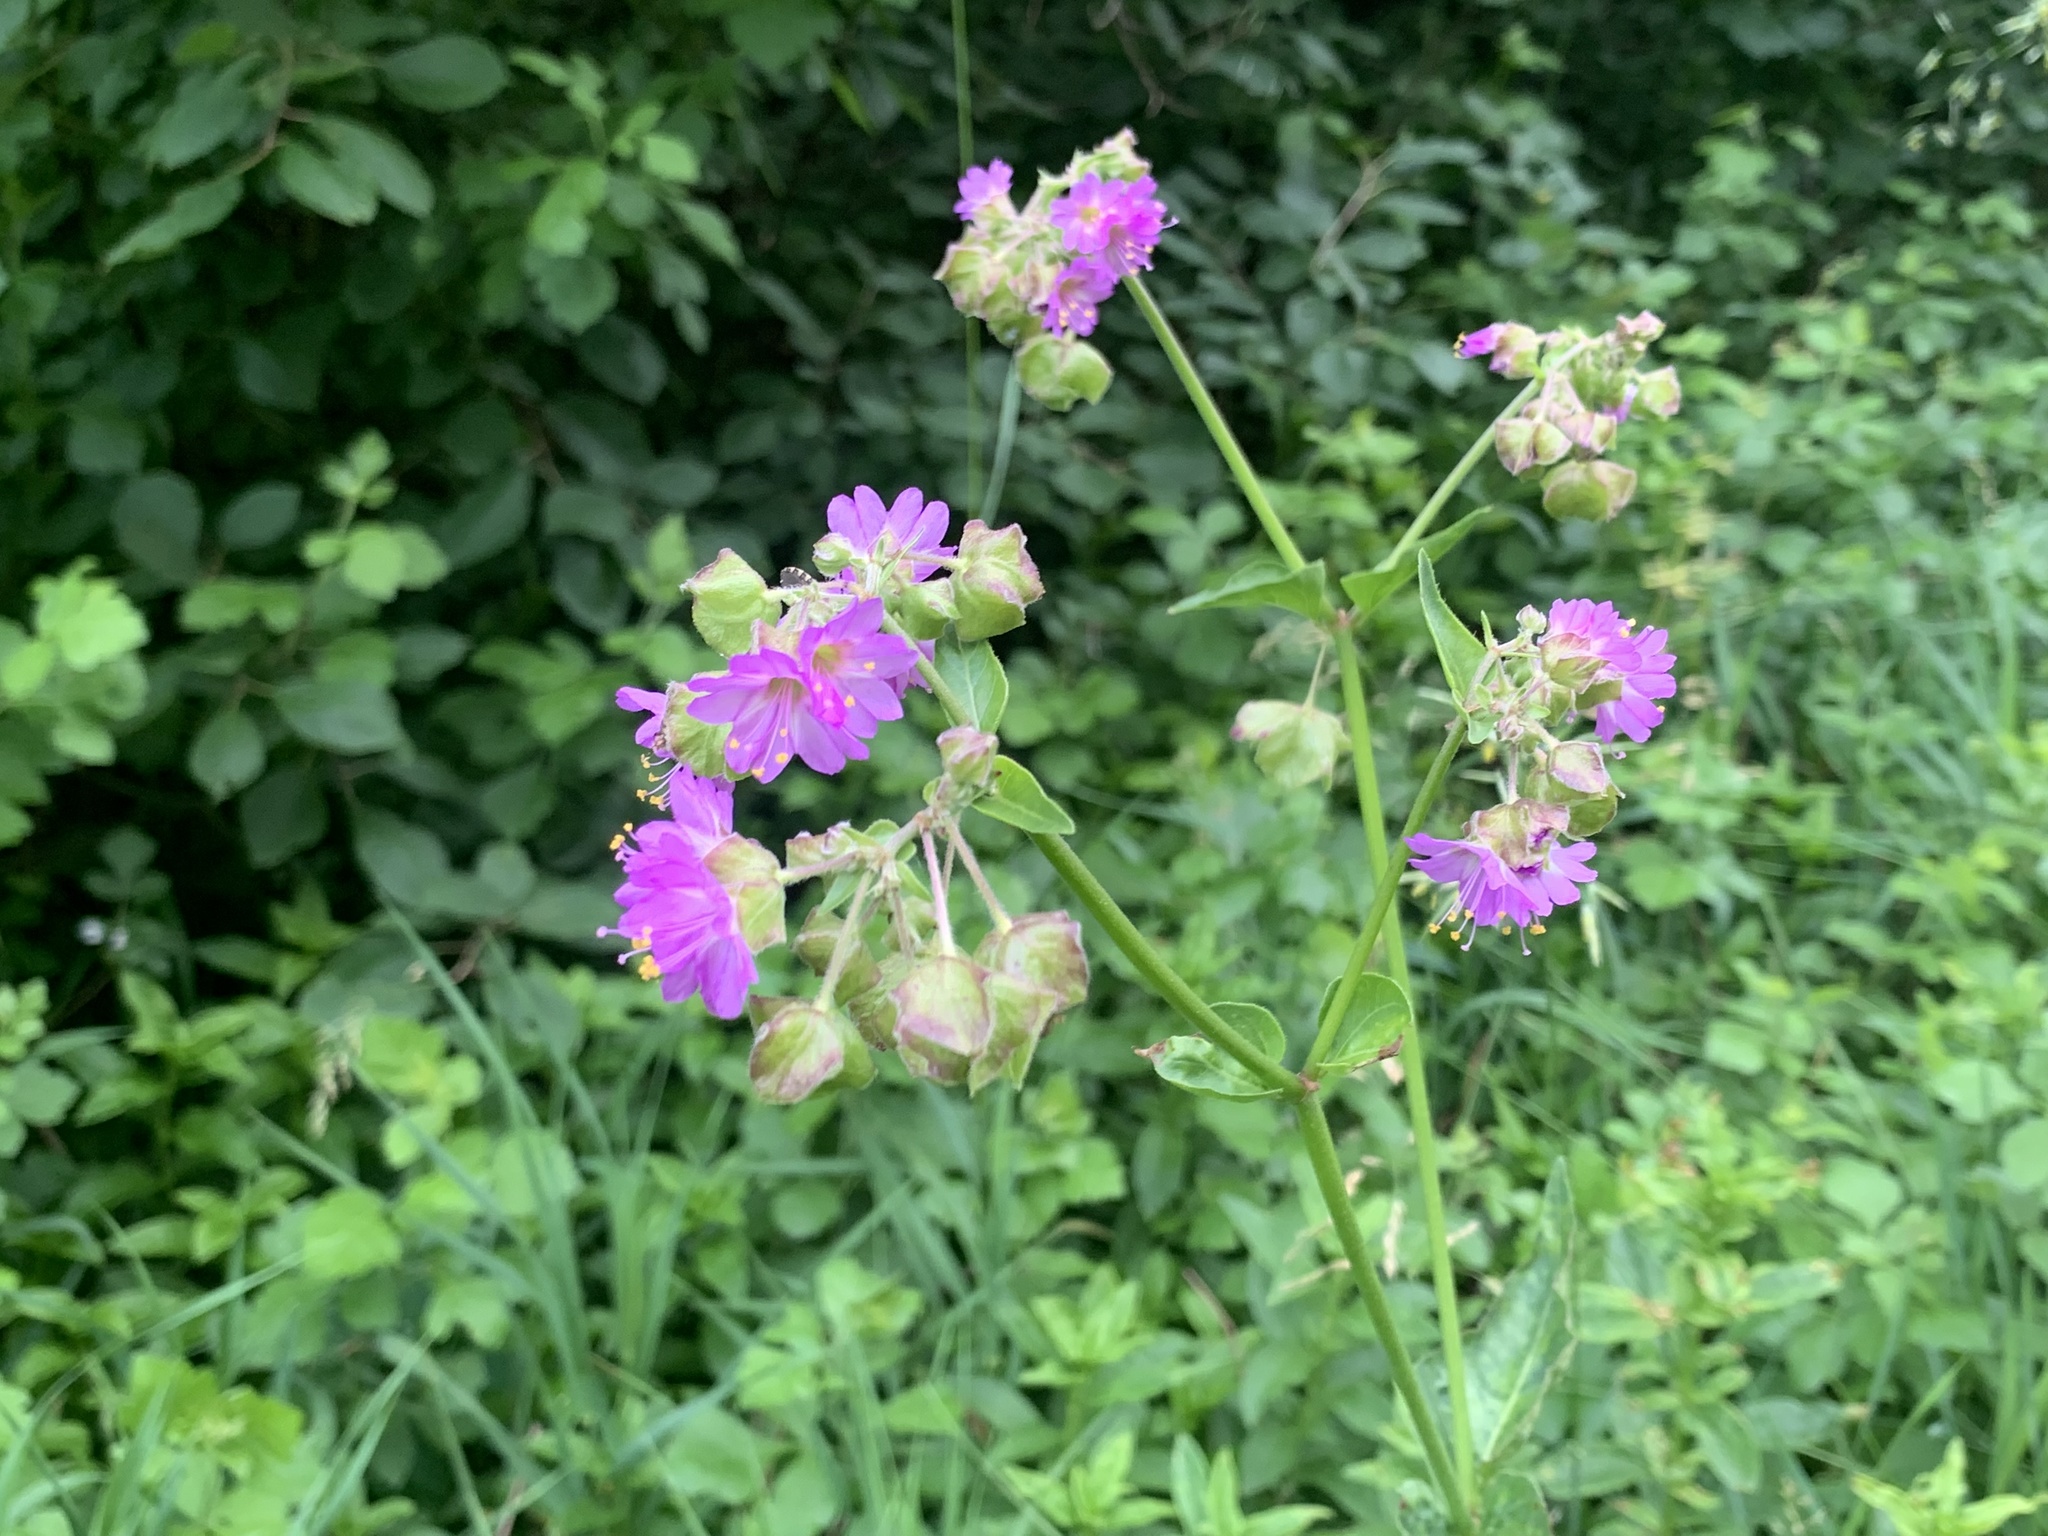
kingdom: Plantae
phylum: Tracheophyta
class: Magnoliopsida
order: Caryophyllales
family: Nyctaginaceae
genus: Mirabilis
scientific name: Mirabilis nyctaginea
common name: Umbrella wort
